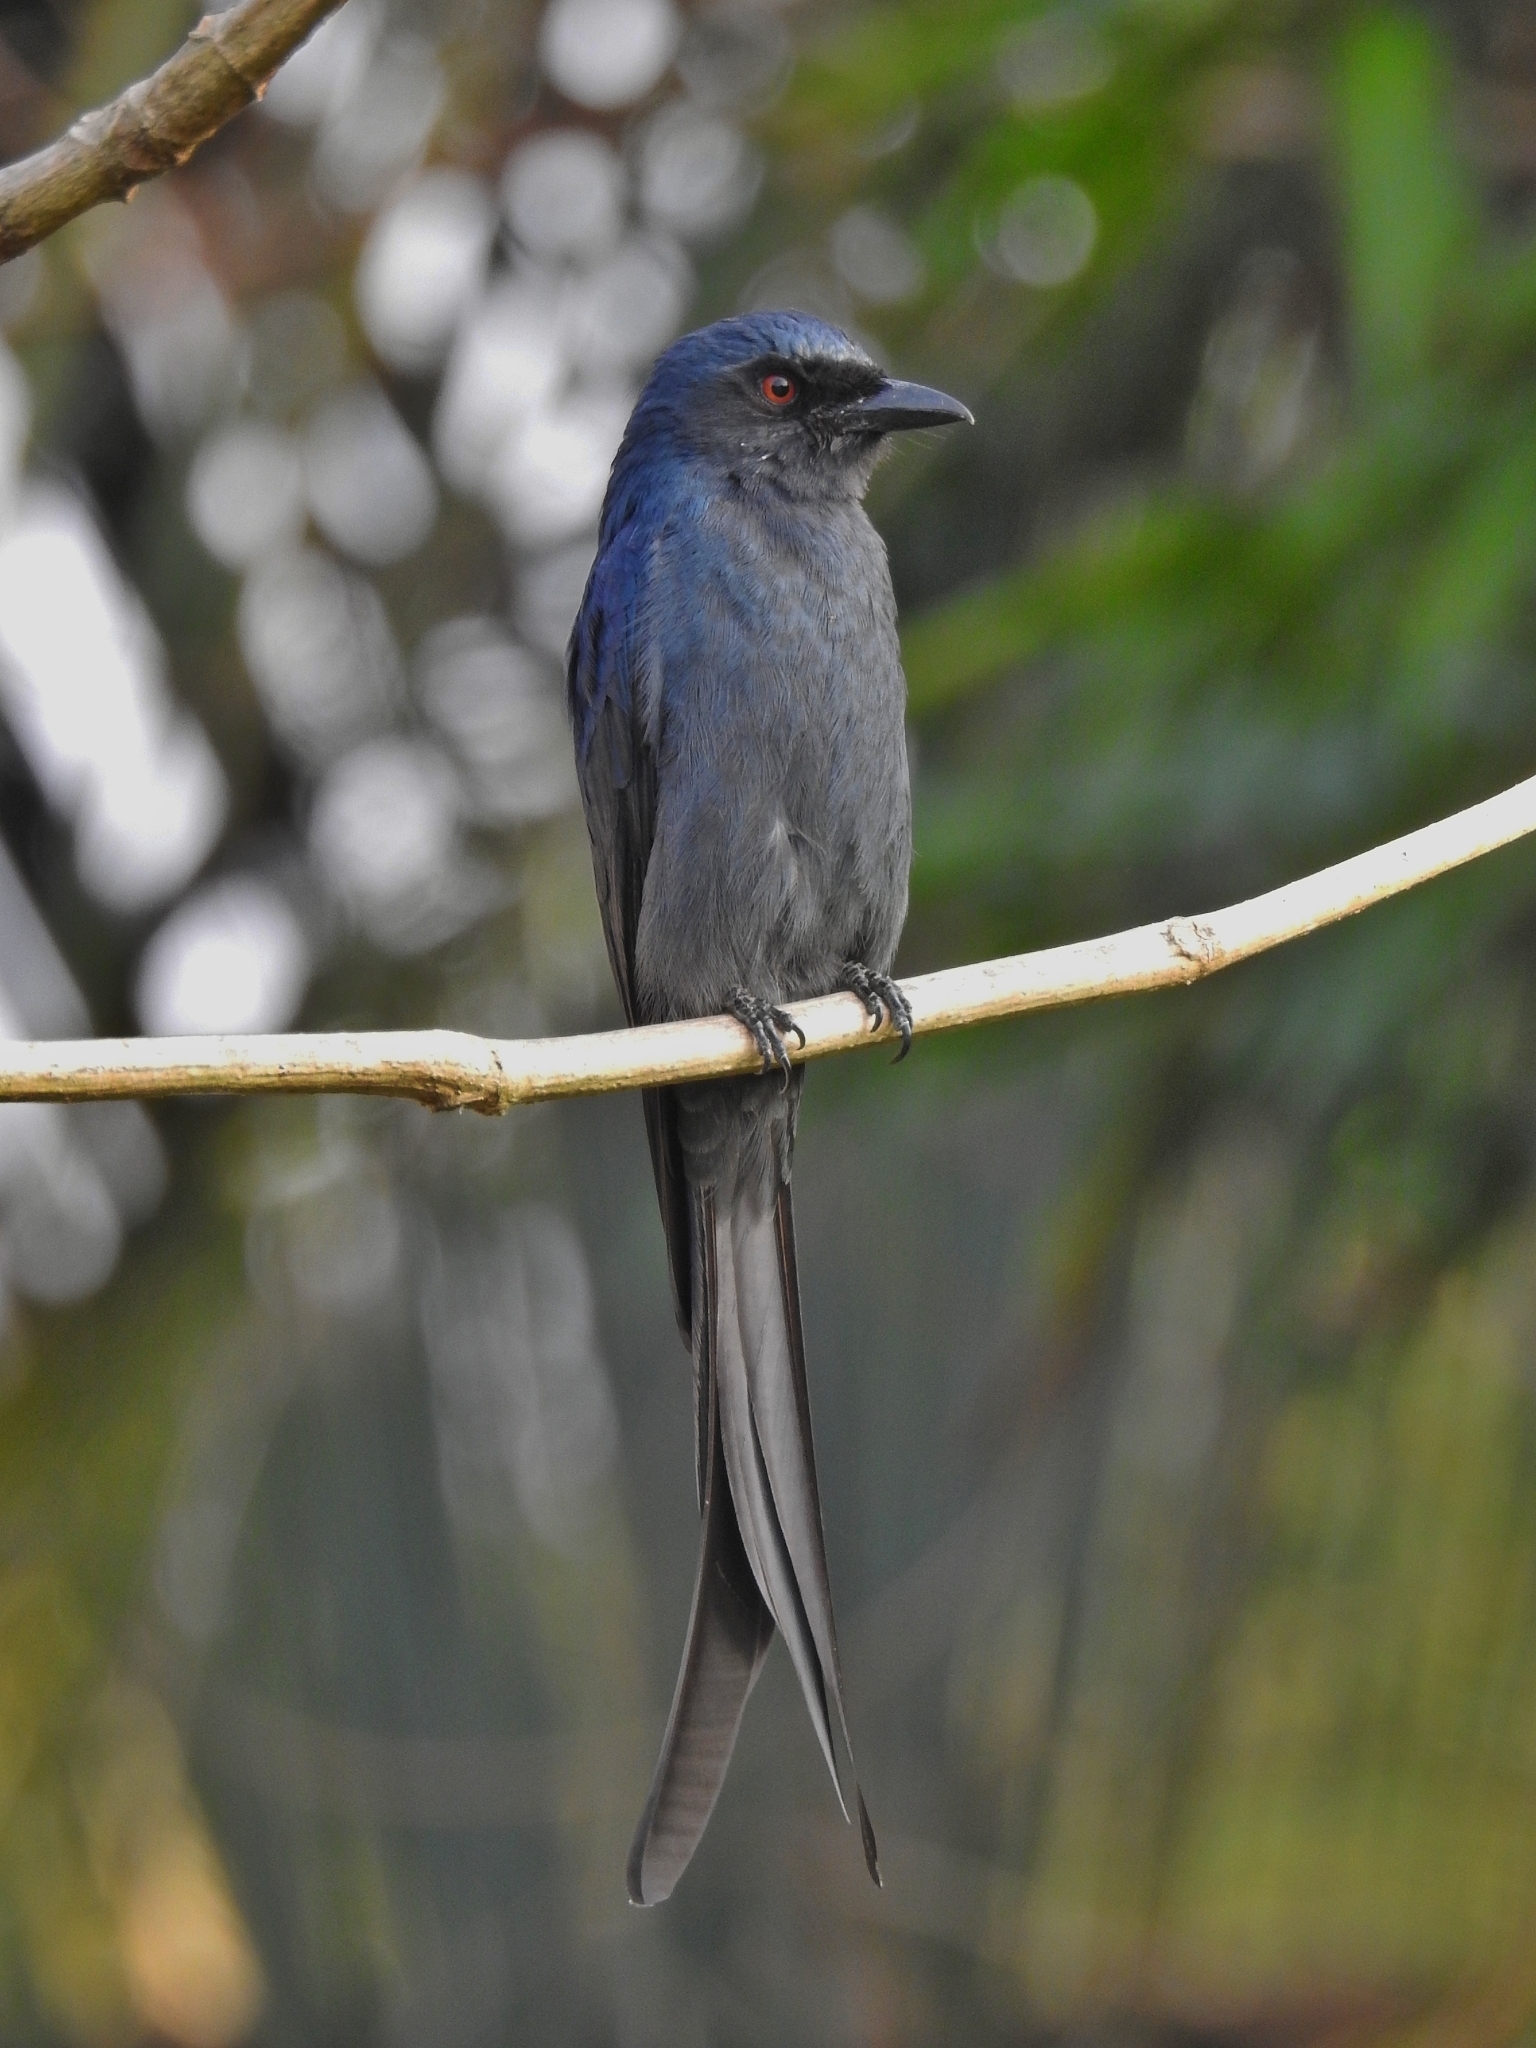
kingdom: Animalia
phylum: Chordata
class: Aves
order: Passeriformes
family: Dicruridae
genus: Dicrurus
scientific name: Dicrurus leucophaeus
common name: Ashy drongo
